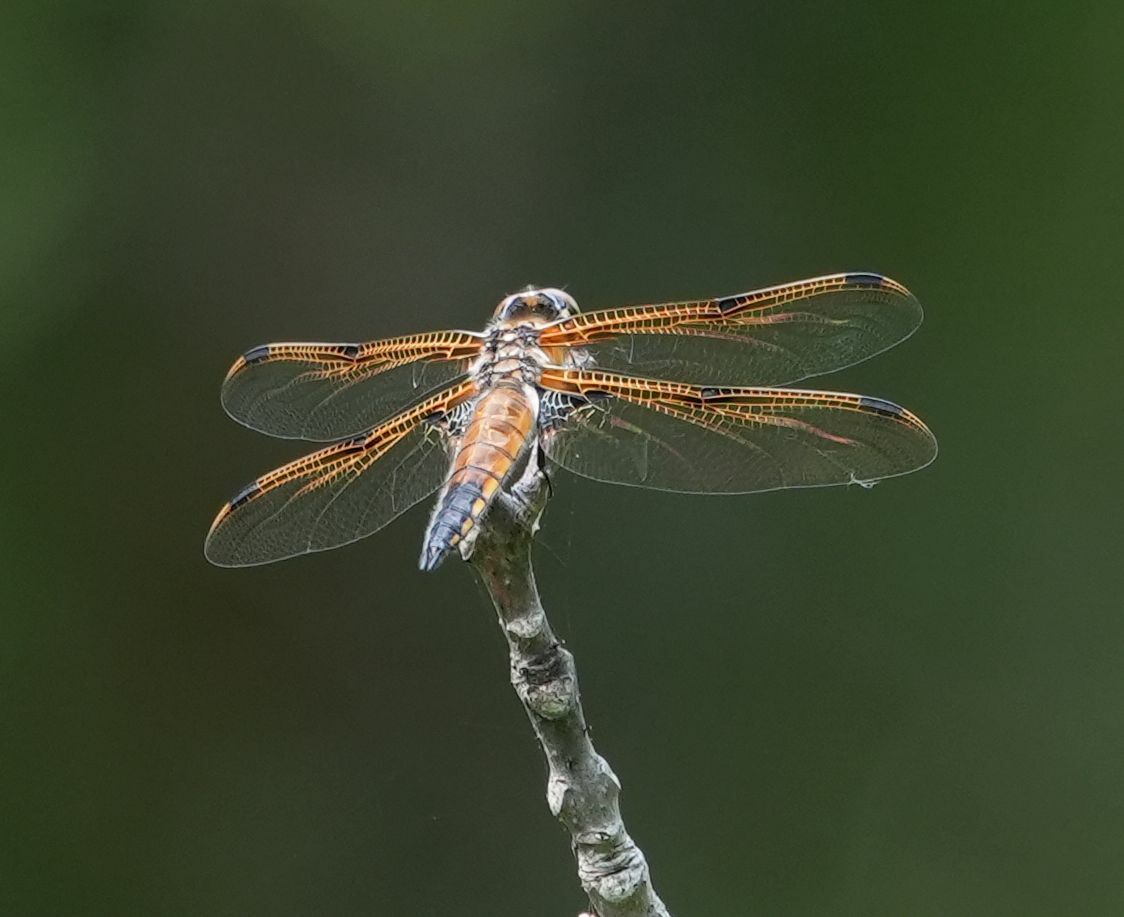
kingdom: Animalia
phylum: Arthropoda
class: Insecta
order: Odonata
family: Libellulidae
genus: Libellula
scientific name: Libellula quadrimaculata
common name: Four-spotted chaser
